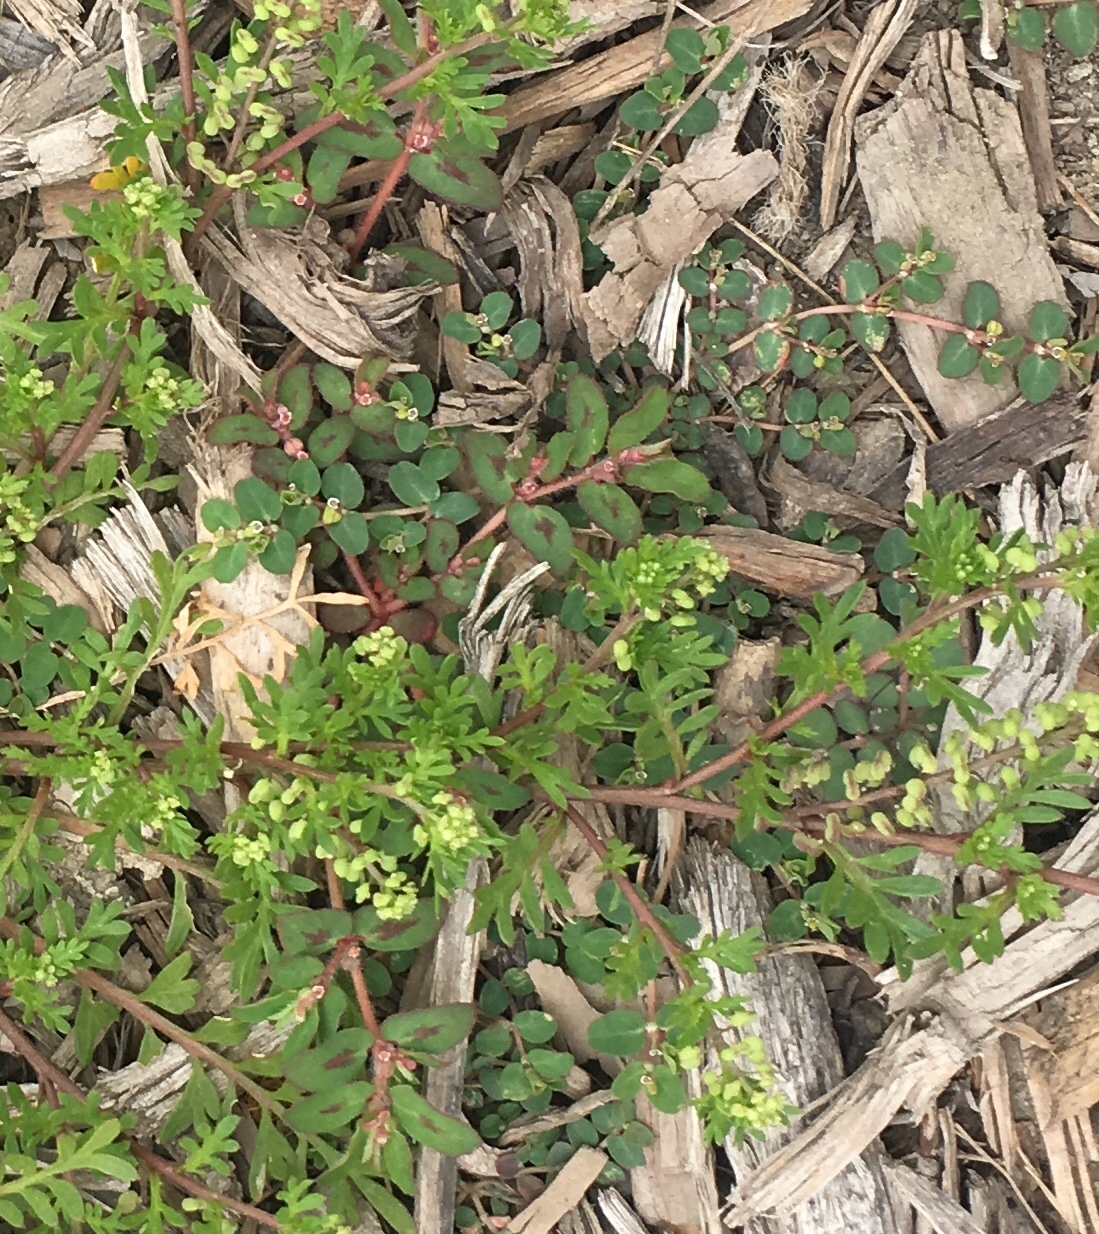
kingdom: Plantae
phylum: Tracheophyta
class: Magnoliopsida
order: Malpighiales
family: Euphorbiaceae
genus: Euphorbia
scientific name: Euphorbia maculata
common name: Spotted spurge
